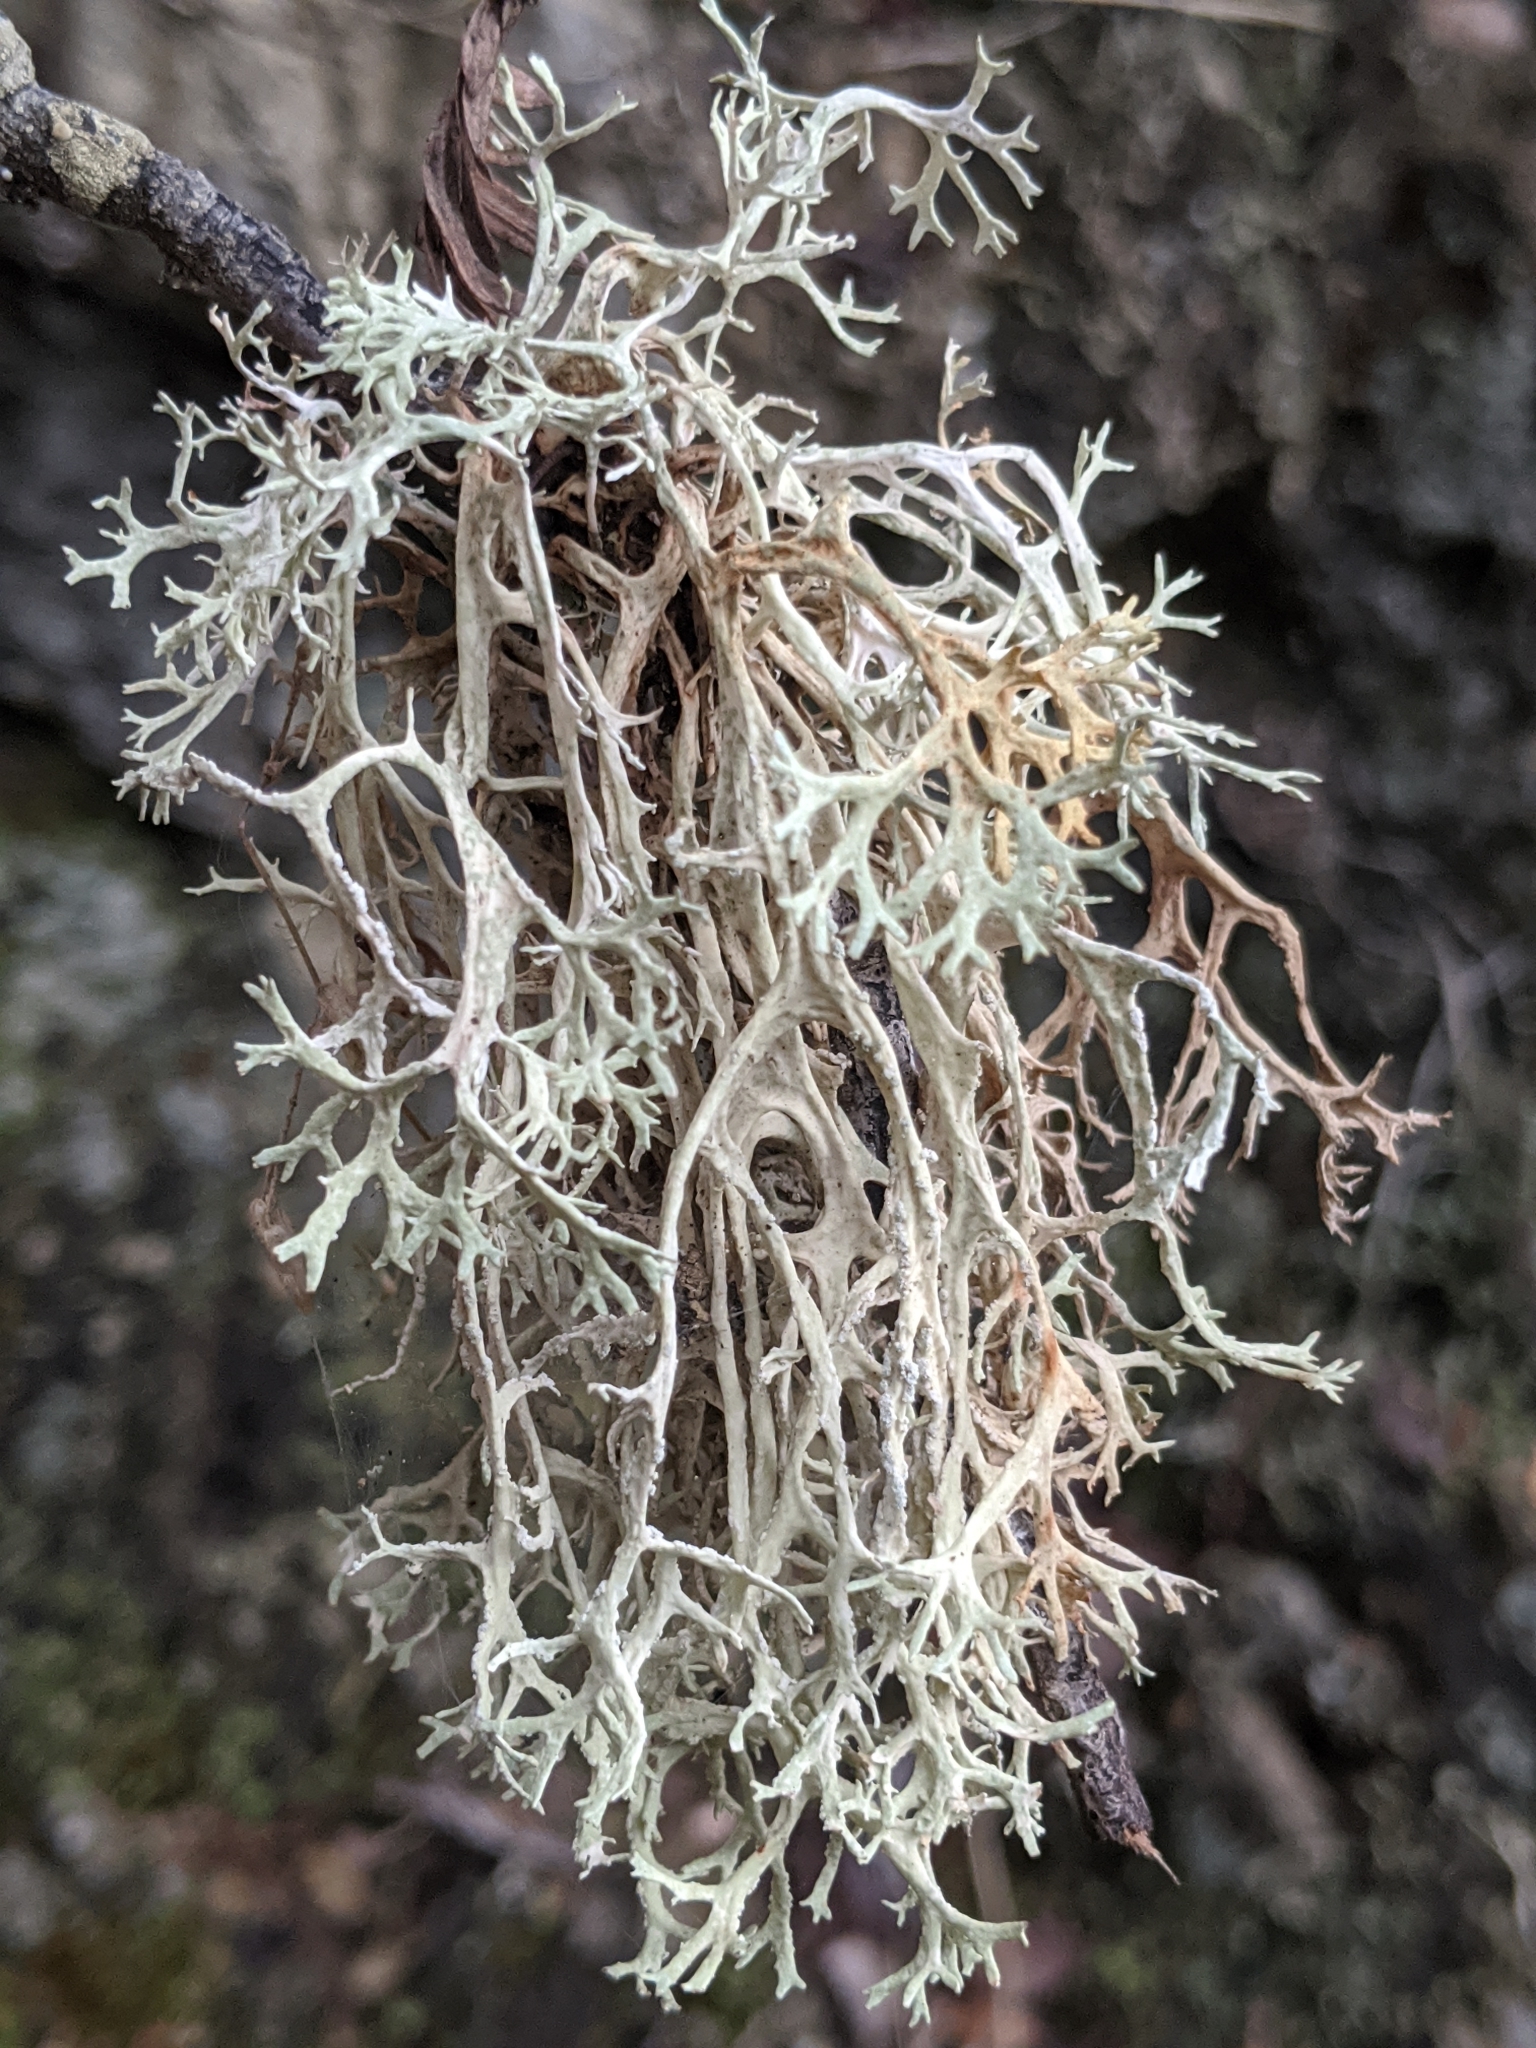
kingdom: Fungi
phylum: Ascomycota
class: Lecanoromycetes
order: Lecanorales
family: Parmeliaceae
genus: Evernia
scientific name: Evernia prunastri
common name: Oak moss
